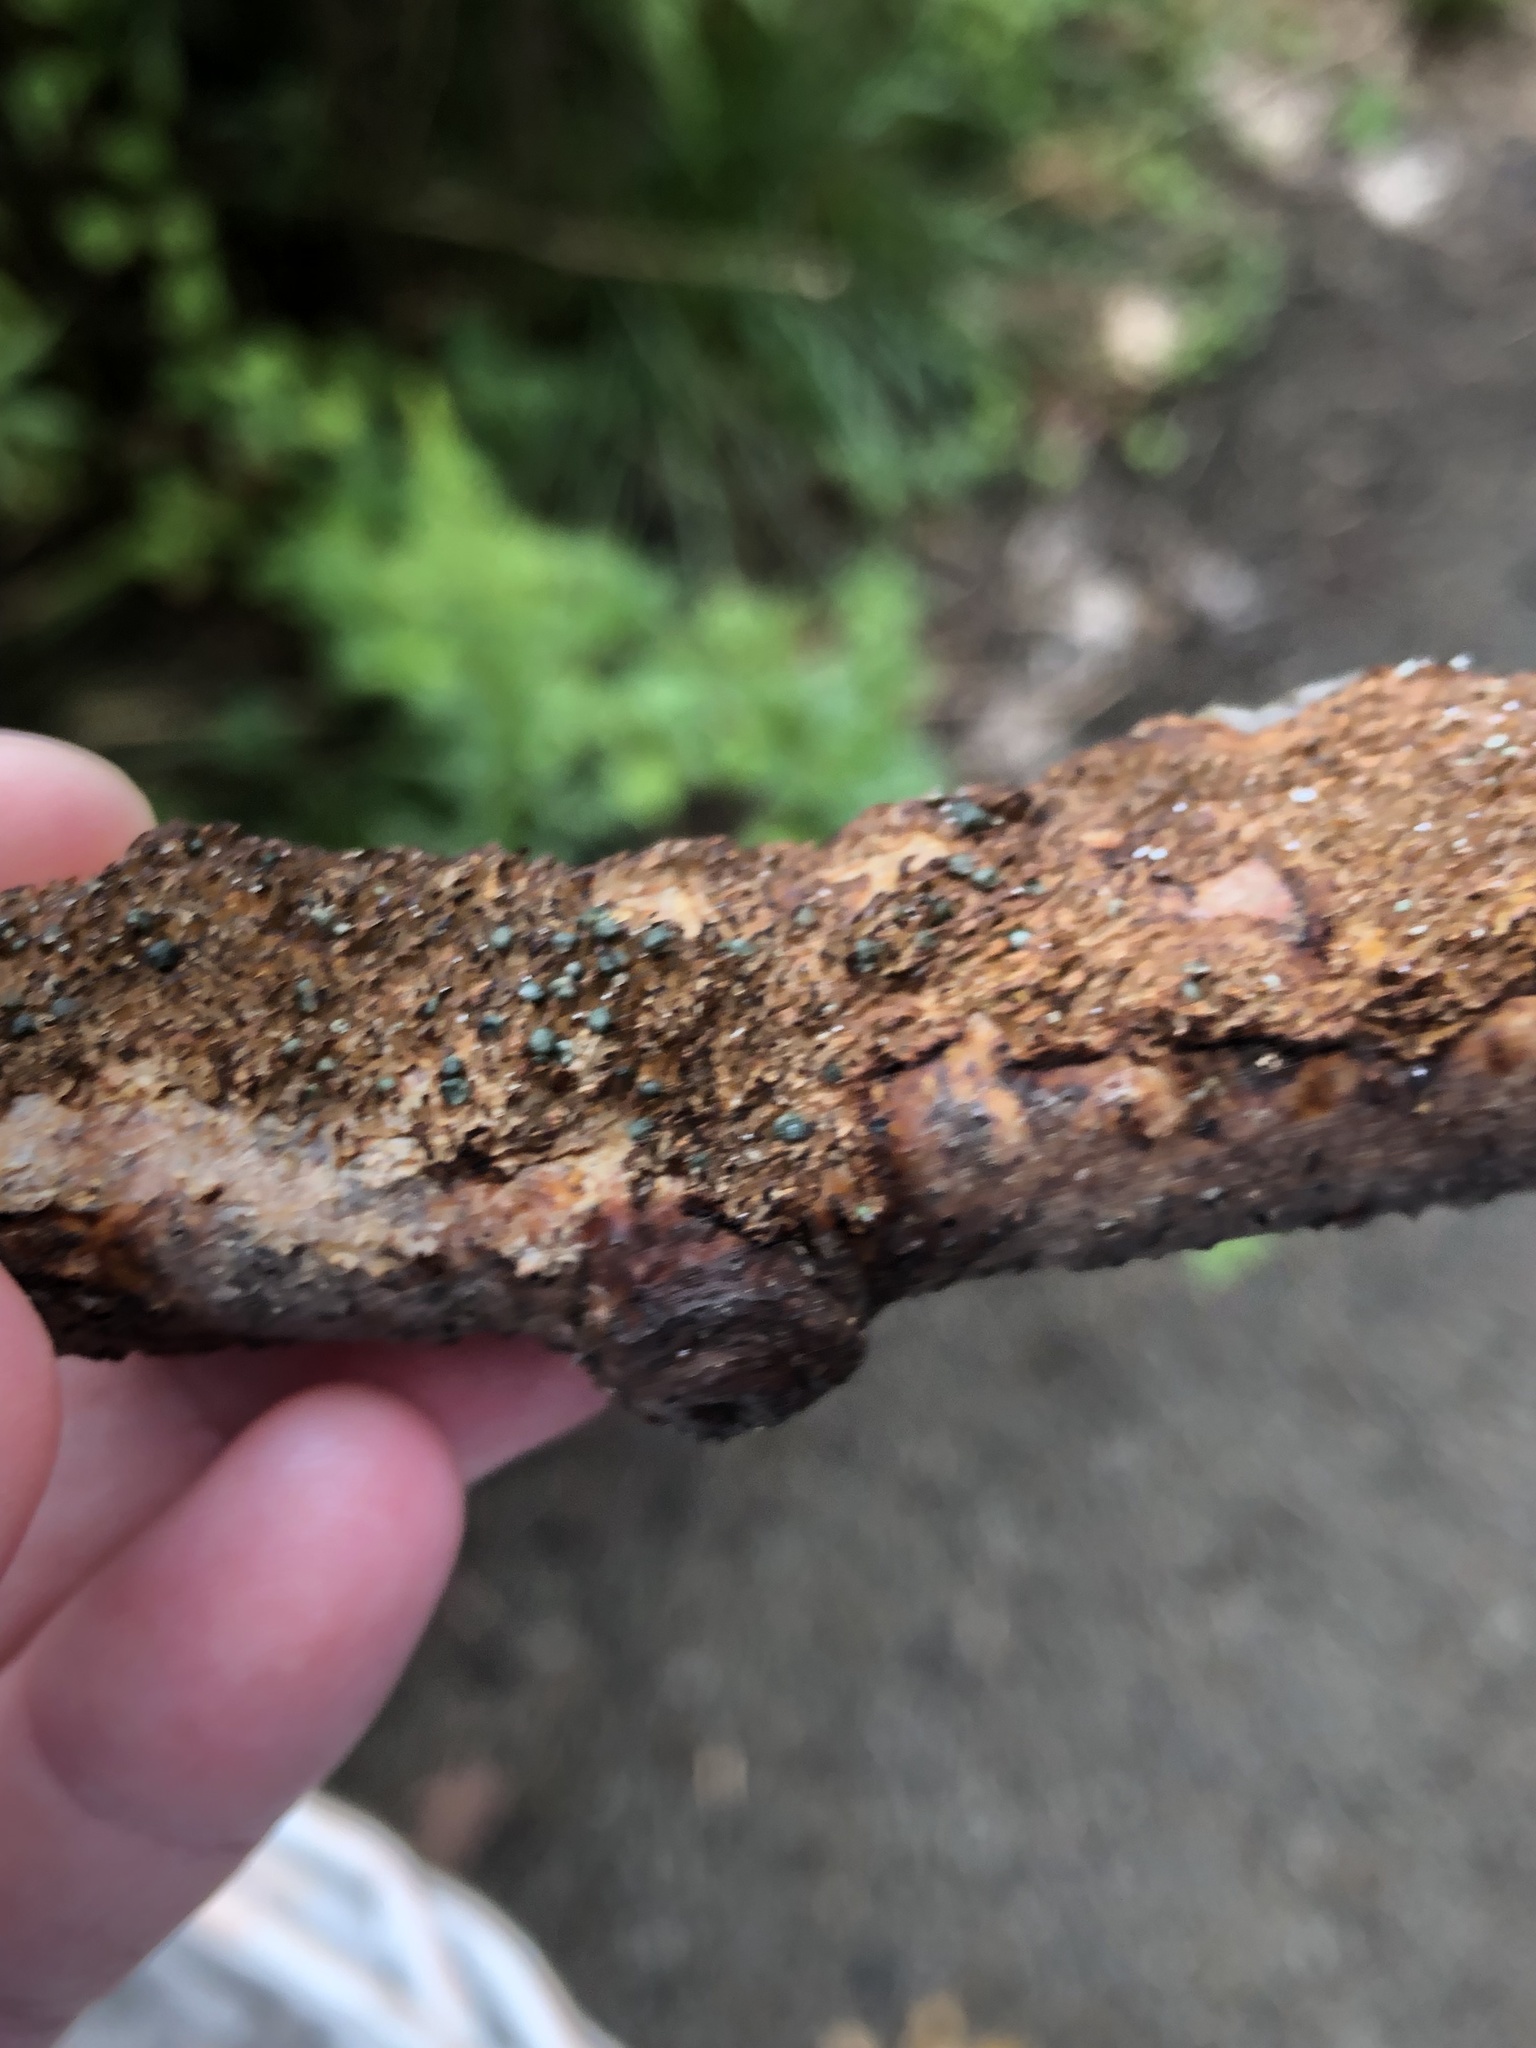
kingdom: Fungi
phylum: Basidiomycota
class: Agaricomycetes
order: Hymenochaetales
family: Hymenochaetaceae
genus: Hydnoporia
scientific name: Hydnoporia olivacea
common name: Brown-toothed crust fungus
